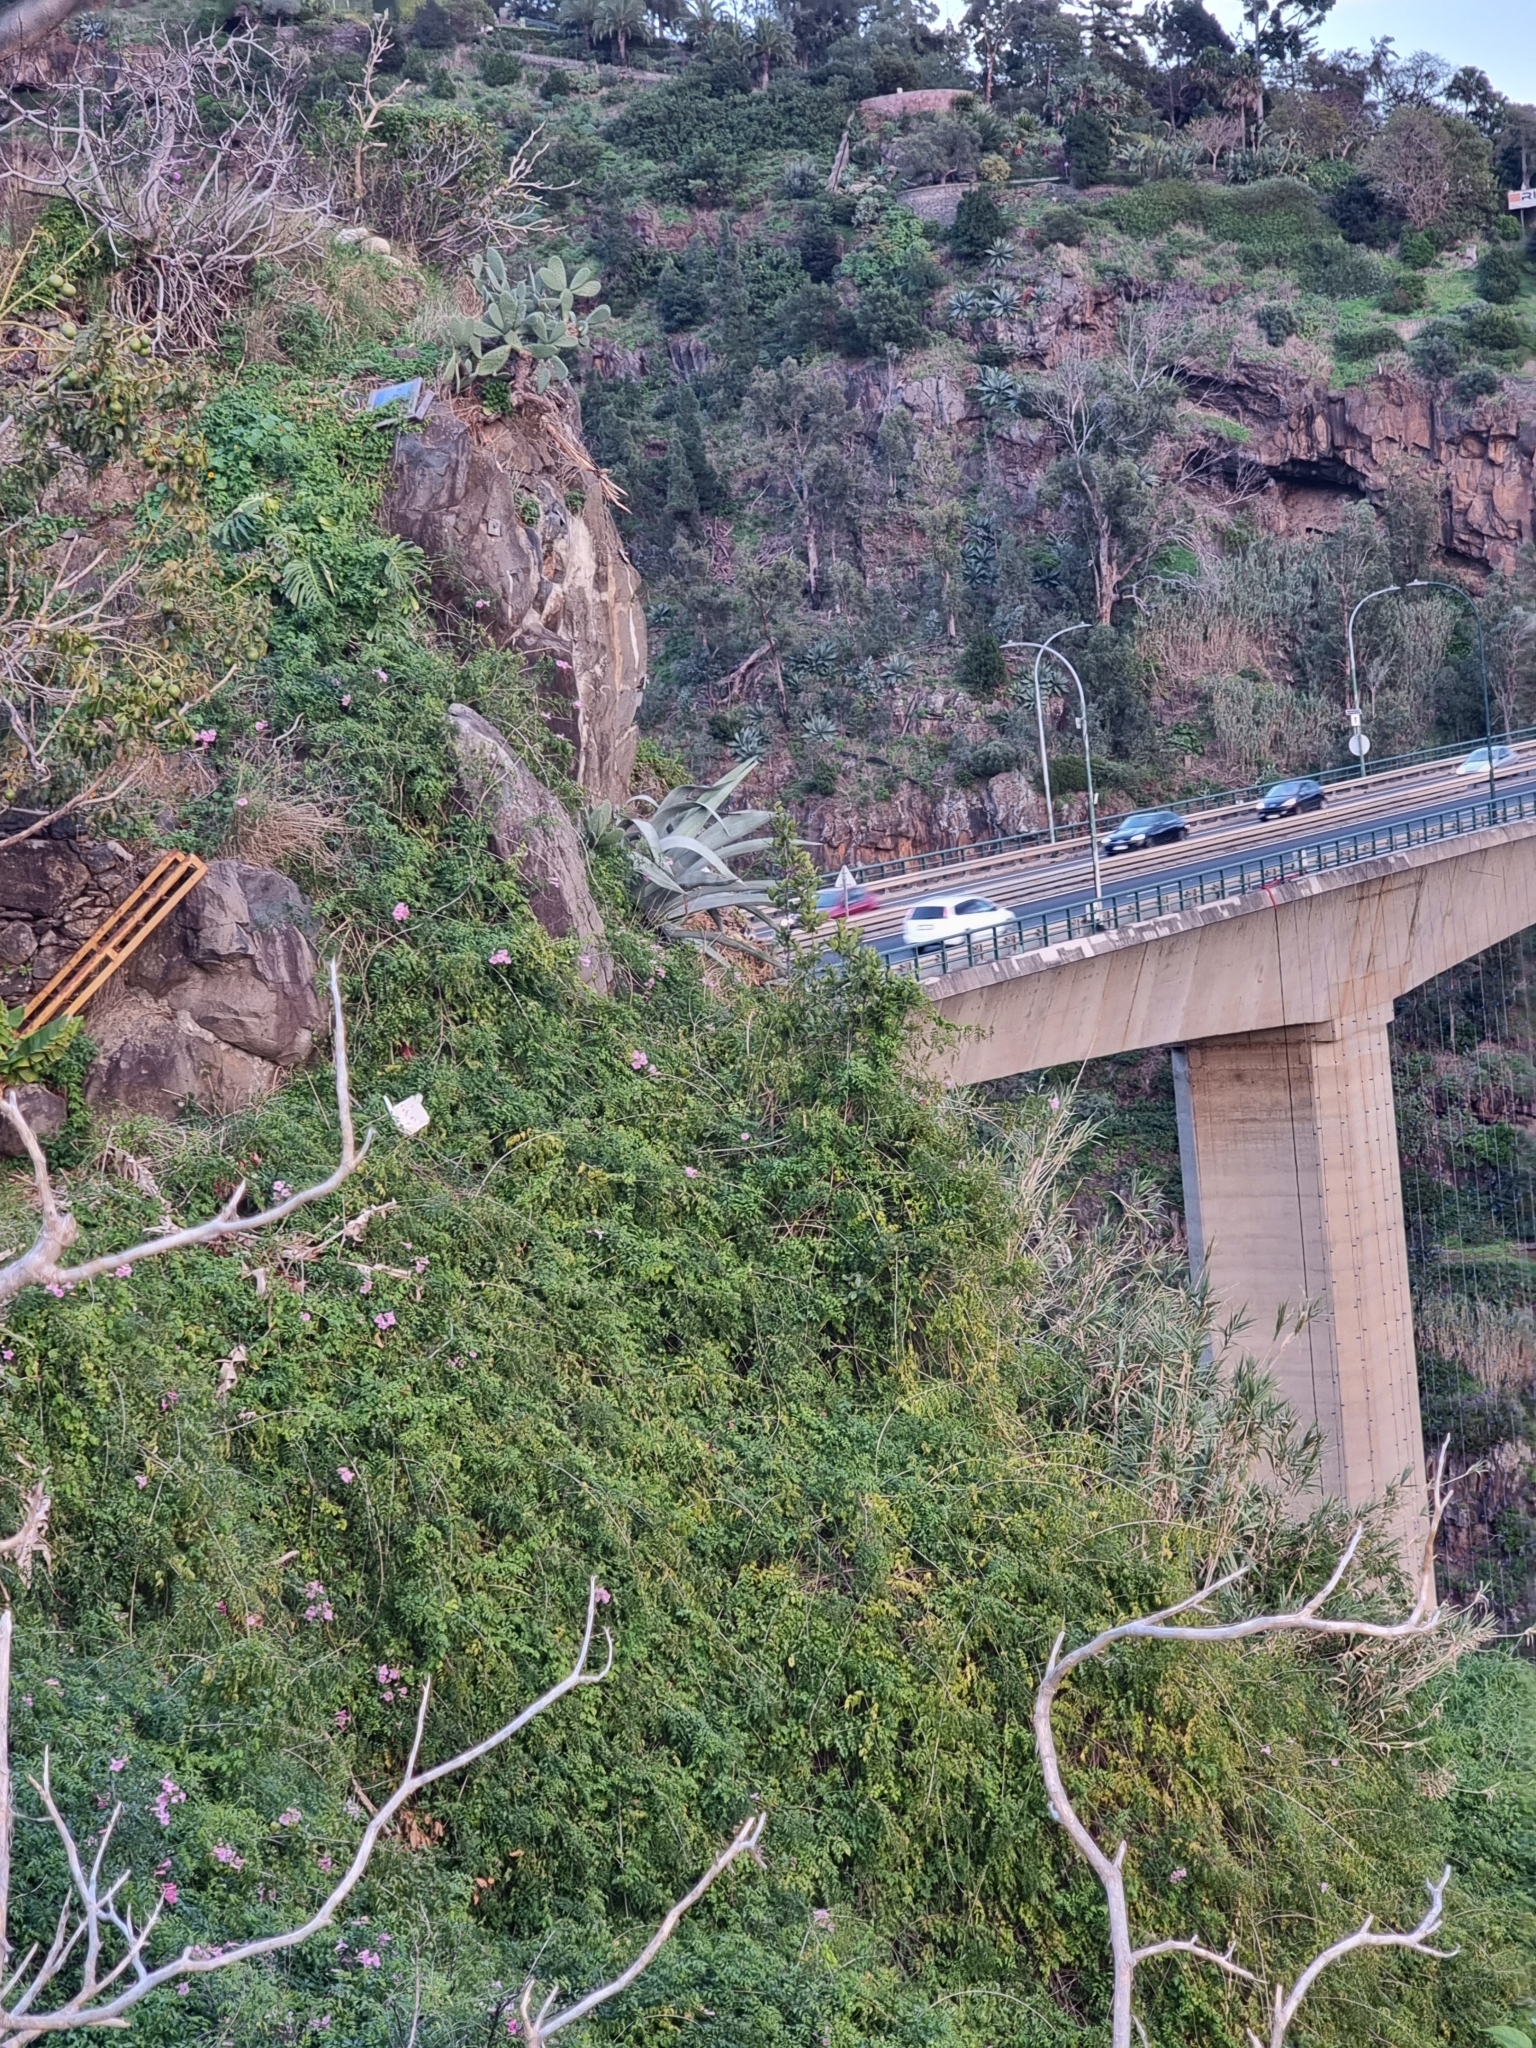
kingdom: Plantae
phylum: Tracheophyta
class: Liliopsida
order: Asparagales
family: Asparagaceae
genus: Agave
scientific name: Agave americana
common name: Centuryplant
